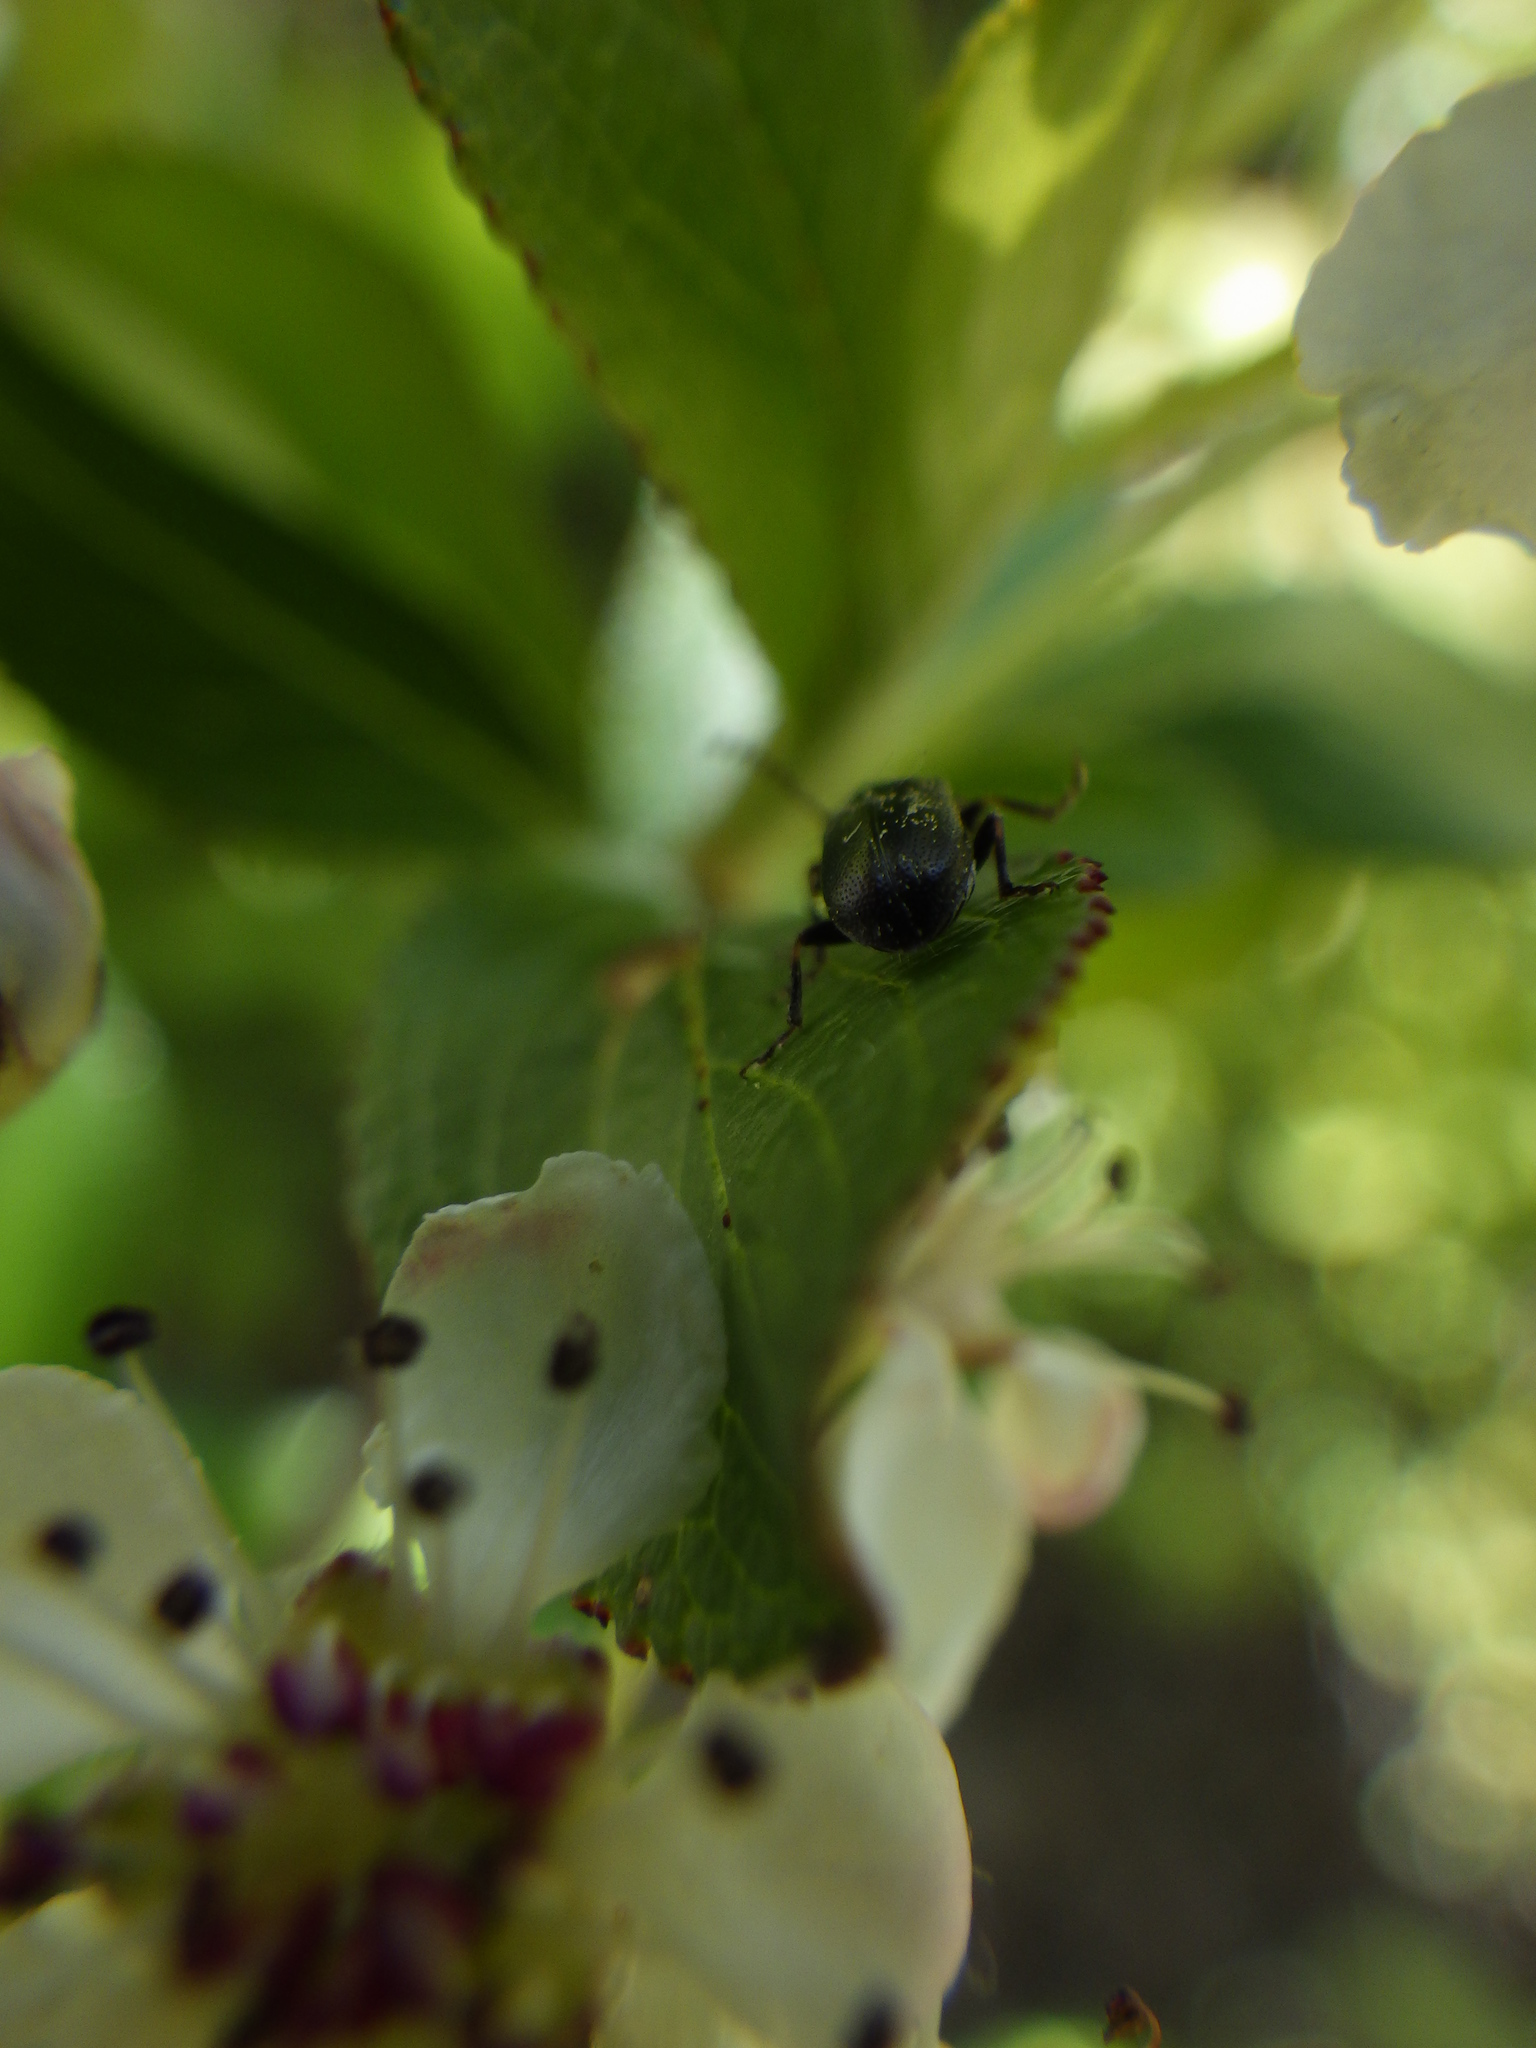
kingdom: Animalia
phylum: Arthropoda
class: Insecta
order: Coleoptera
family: Orsodacnidae
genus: Orsodacne
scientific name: Orsodacne atra
